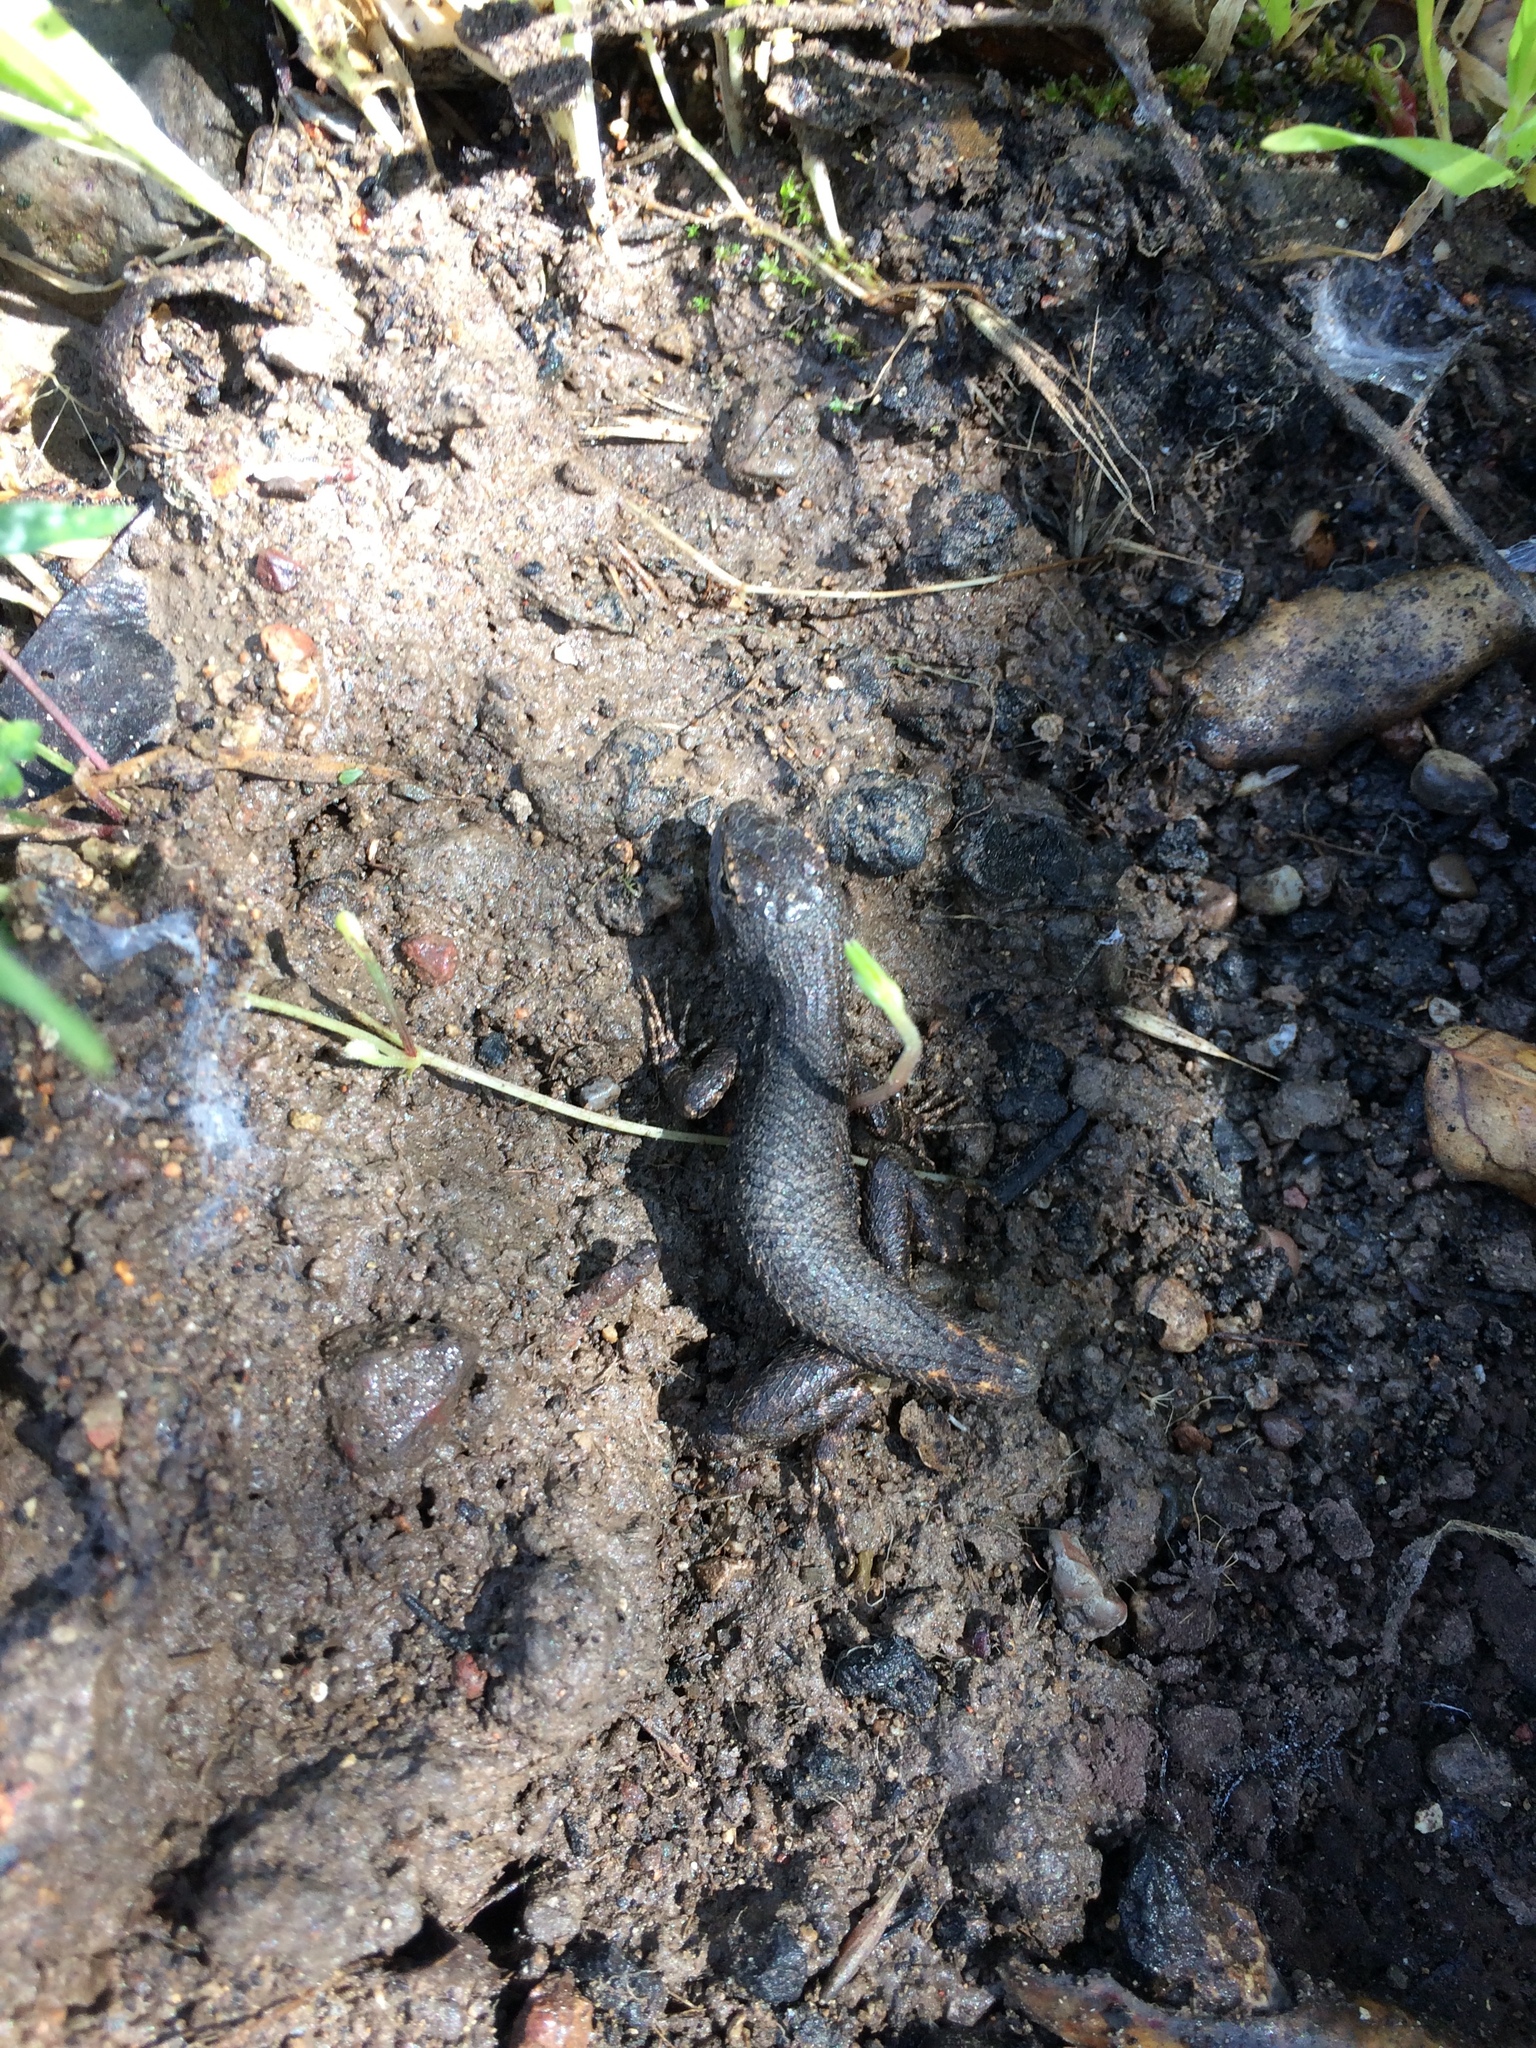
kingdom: Animalia
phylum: Chordata
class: Squamata
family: Phrynosomatidae
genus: Sceloporus
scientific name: Sceloporus occidentalis
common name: Western fence lizard
